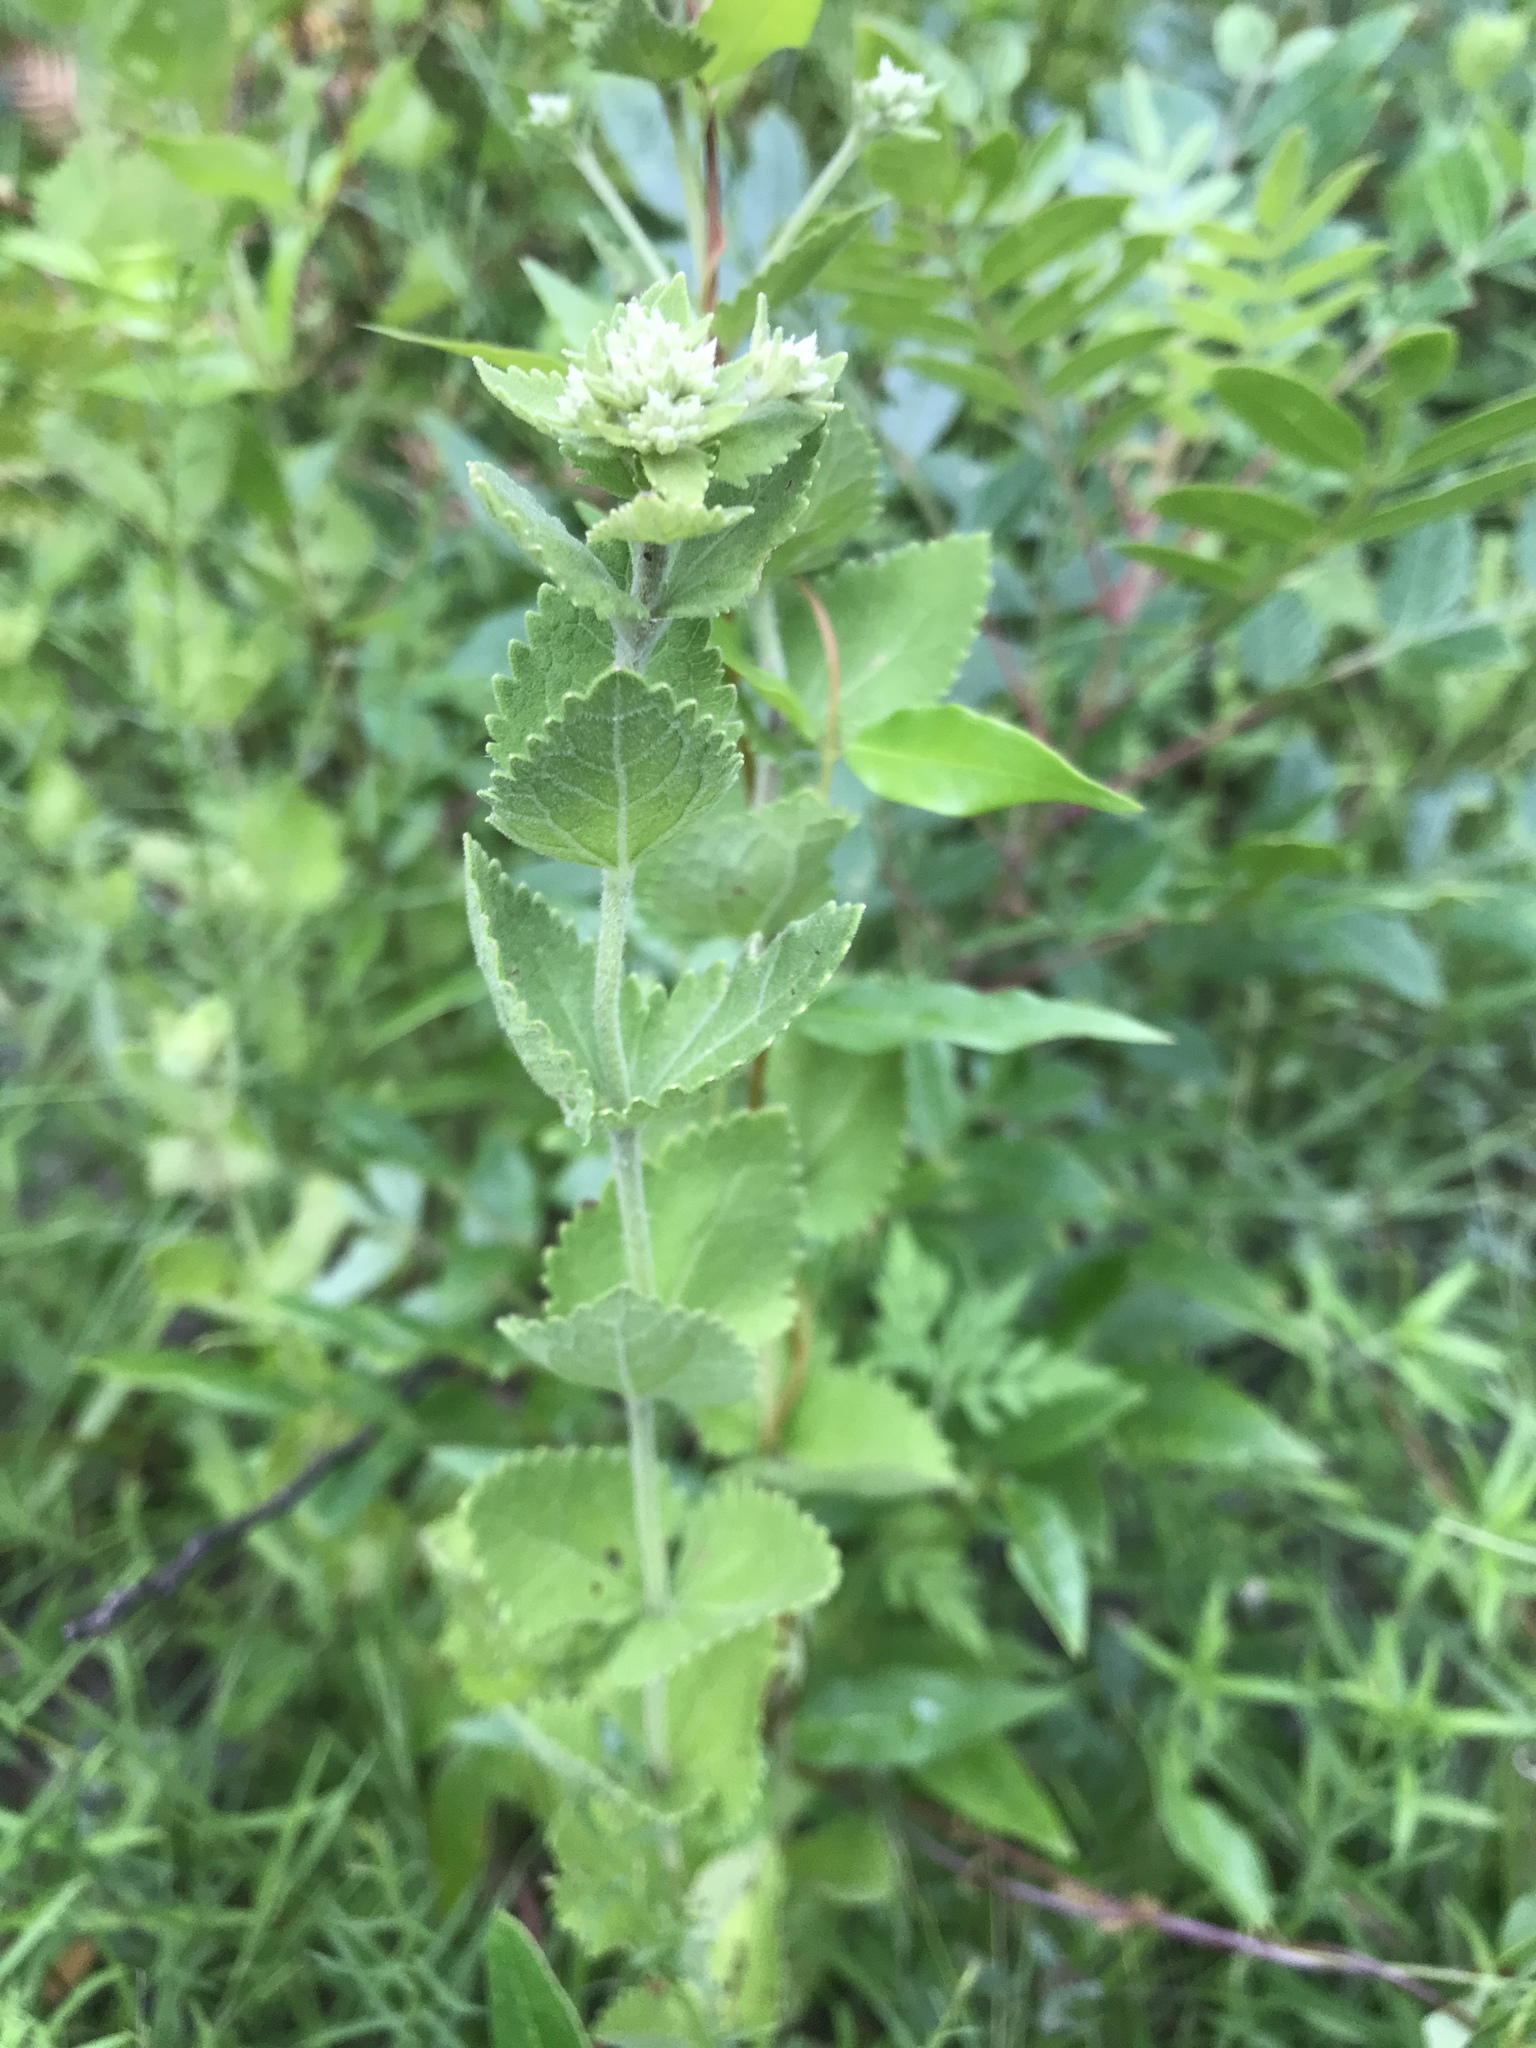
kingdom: Plantae
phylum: Tracheophyta
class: Magnoliopsida
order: Asterales
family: Asteraceae
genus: Eupatorium
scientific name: Eupatorium rotundifolium
